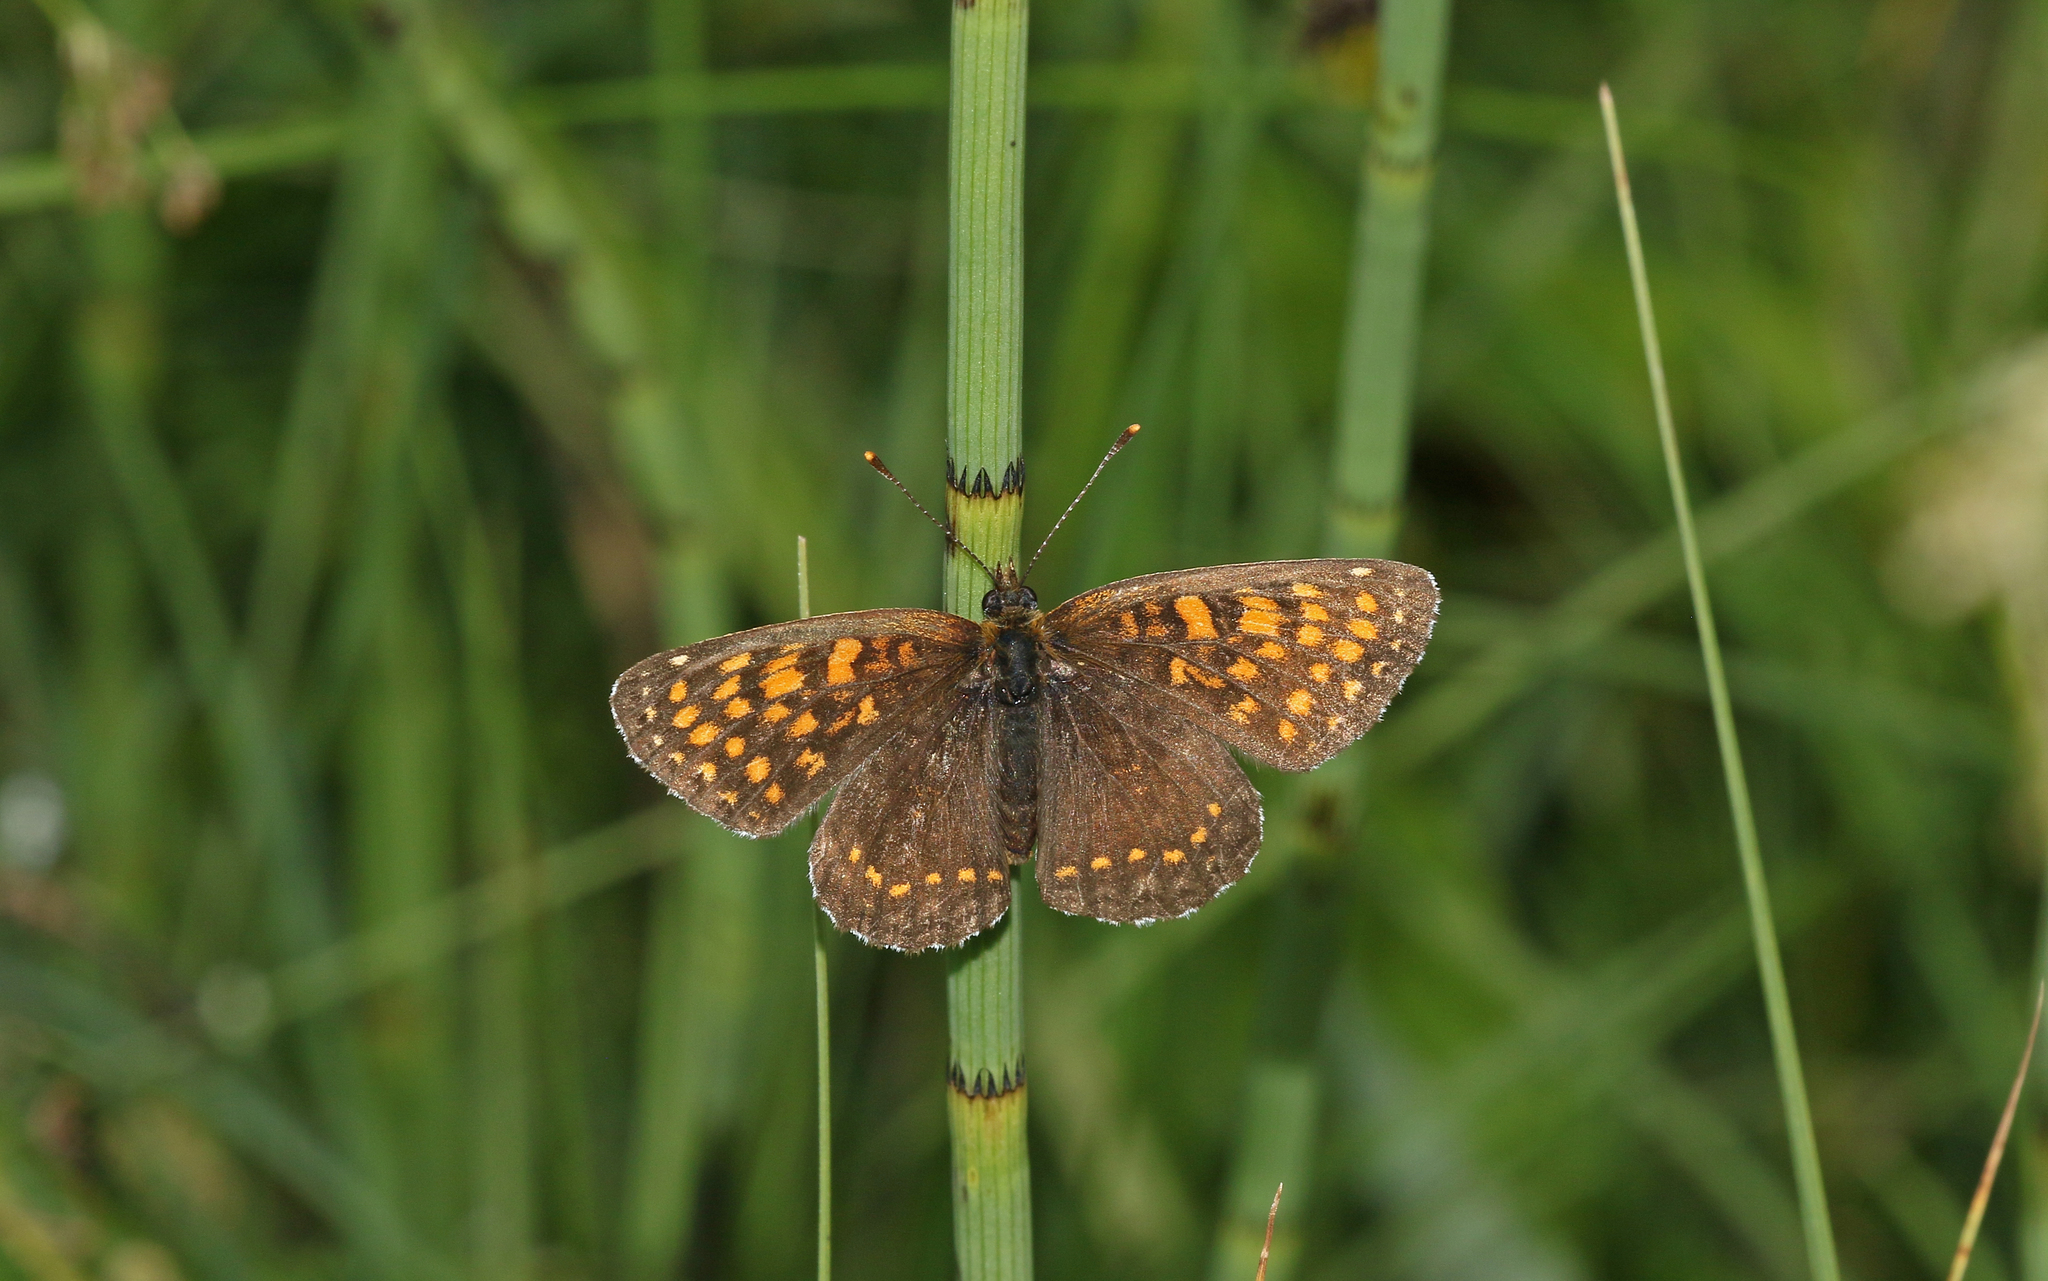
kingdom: Animalia
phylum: Arthropoda
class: Insecta
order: Lepidoptera
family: Nymphalidae
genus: Melitaea
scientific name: Melitaea diamina
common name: False heath fritillary
